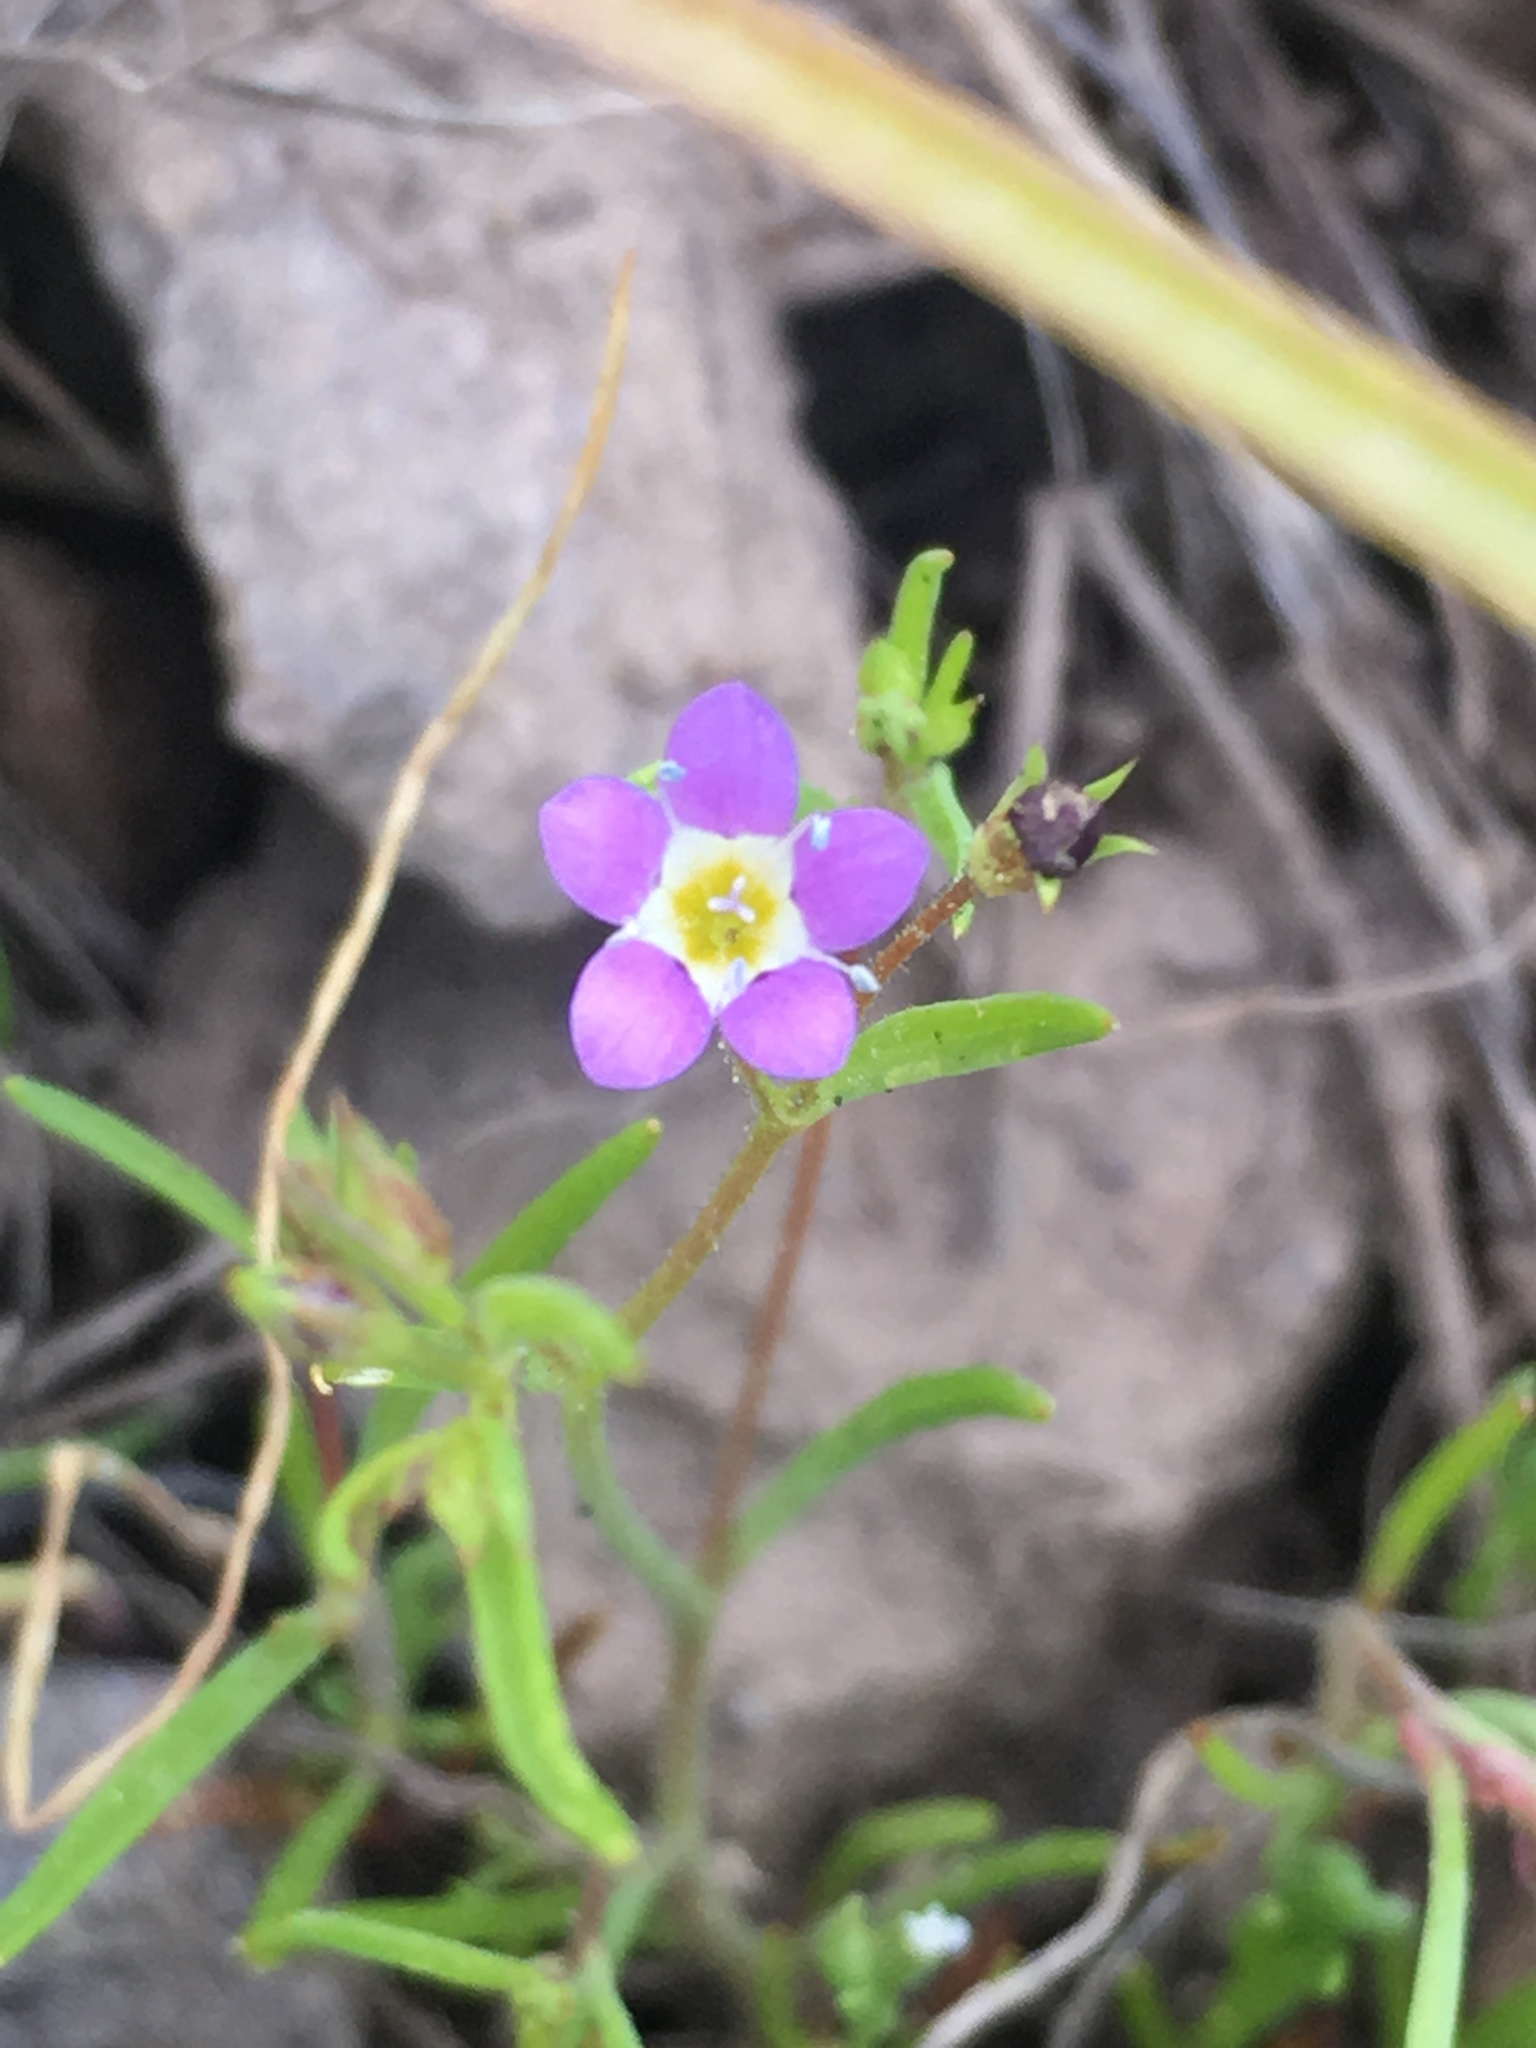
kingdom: Plantae
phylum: Tracheophyta
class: Magnoliopsida
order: Ericales
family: Polemoniaceae
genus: Navarretia
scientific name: Navarretia leptalea
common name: Bridges' pincushionplant
